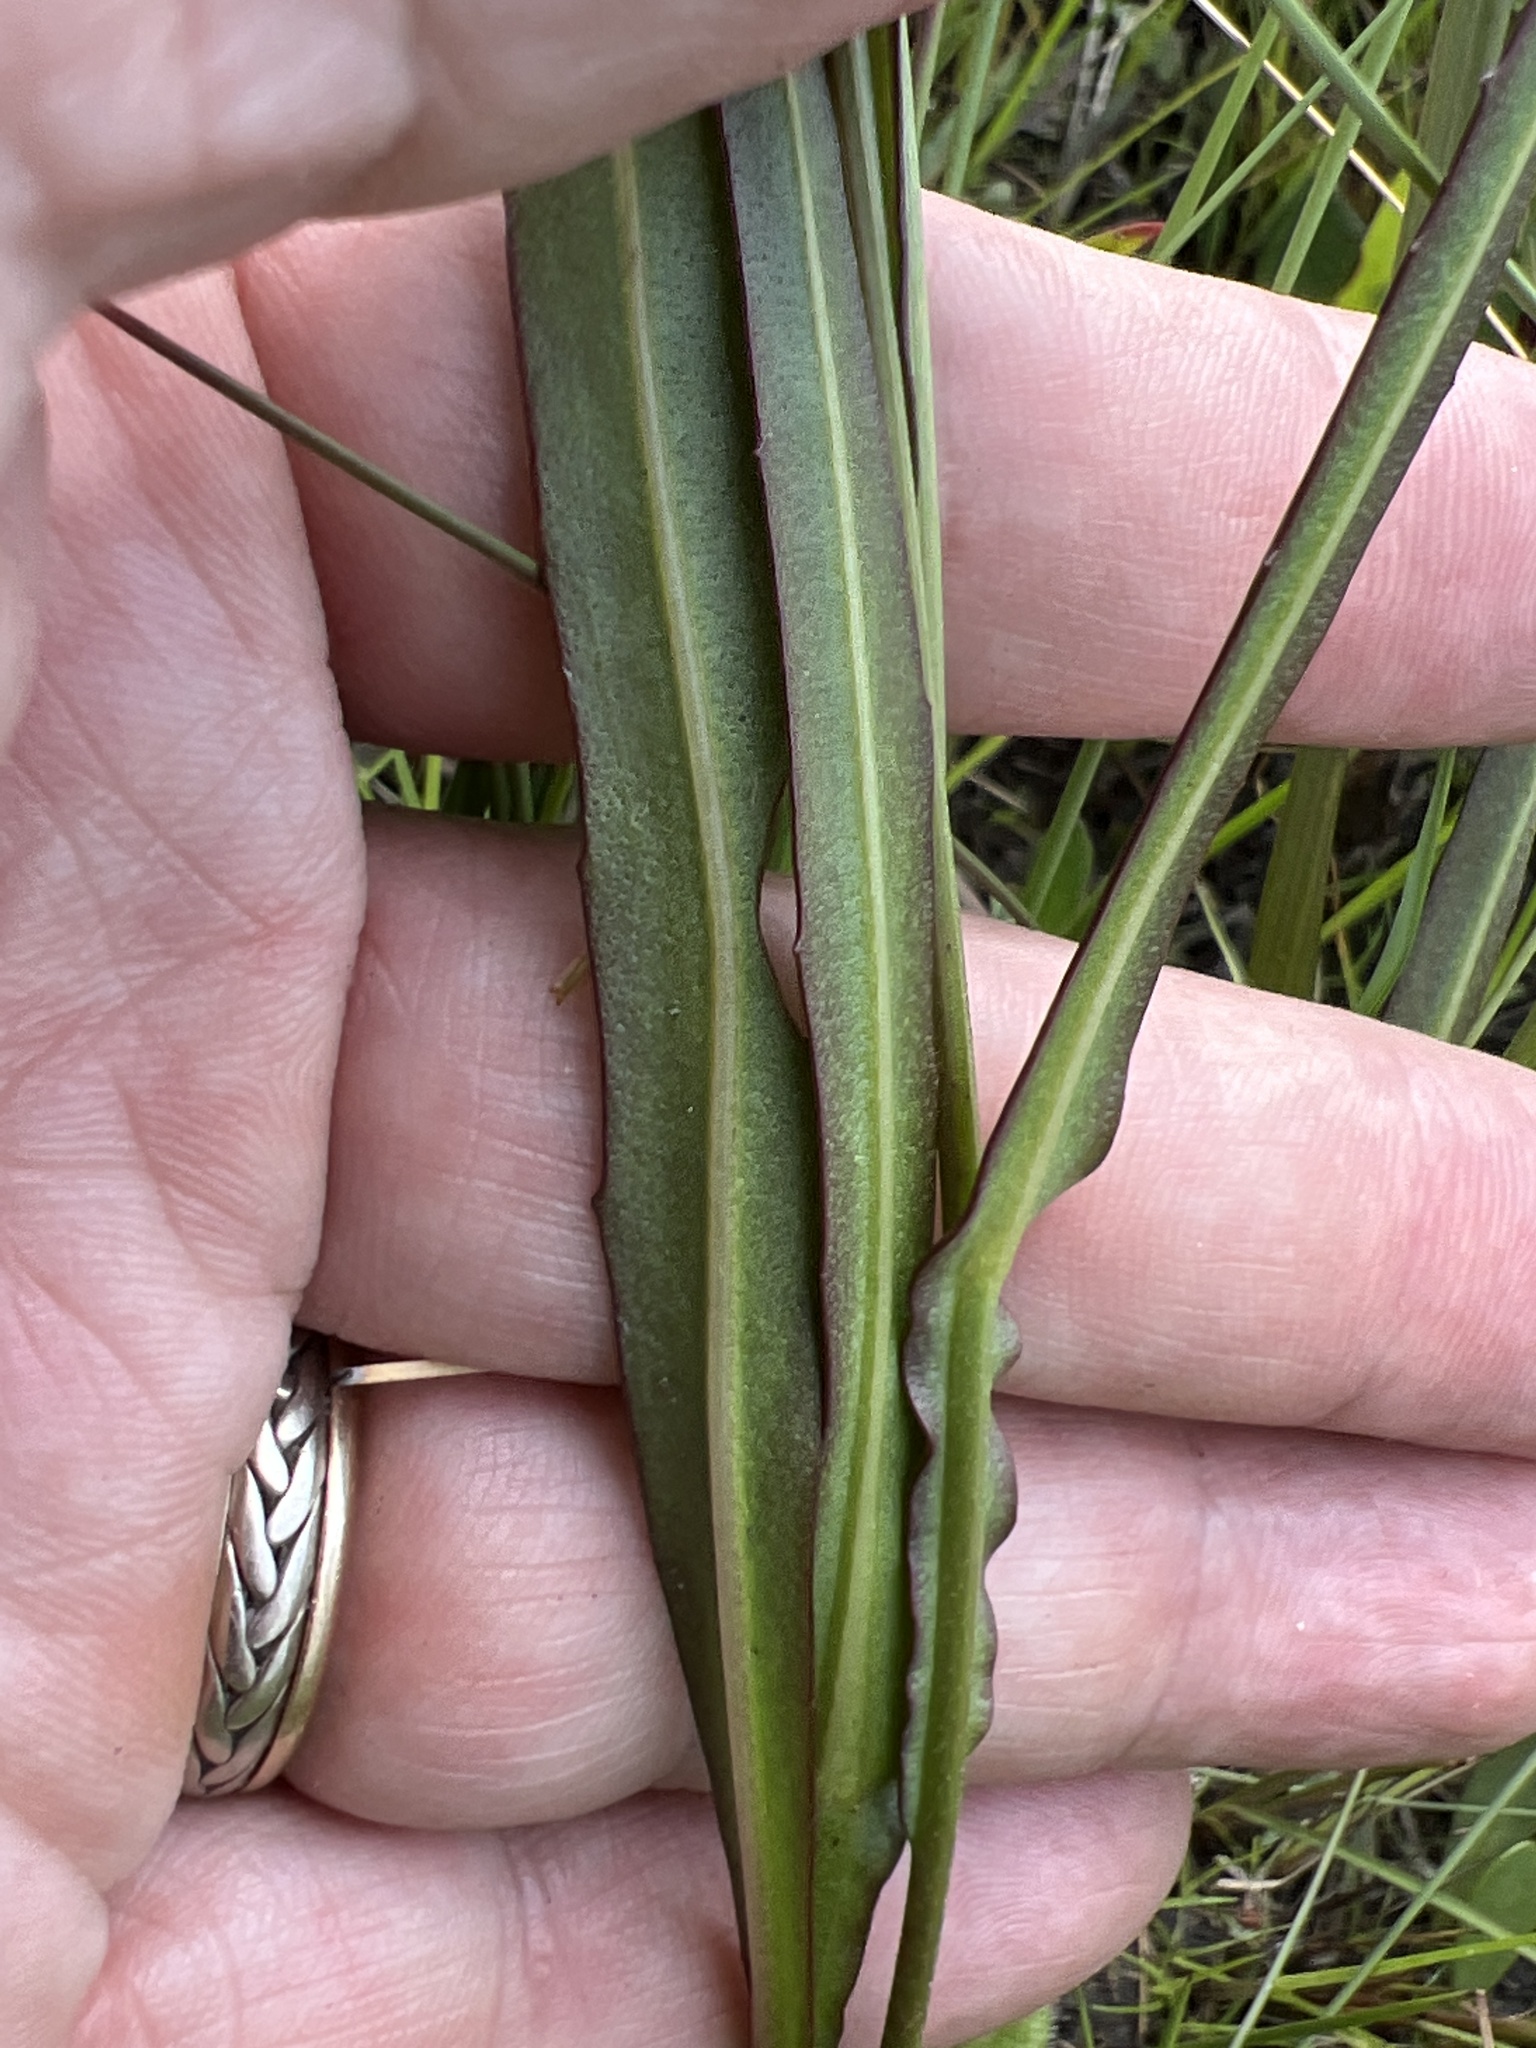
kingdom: Plantae
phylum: Tracheophyta
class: Magnoliopsida
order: Asterales
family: Asteraceae
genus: Helenium
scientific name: Helenium vernale
